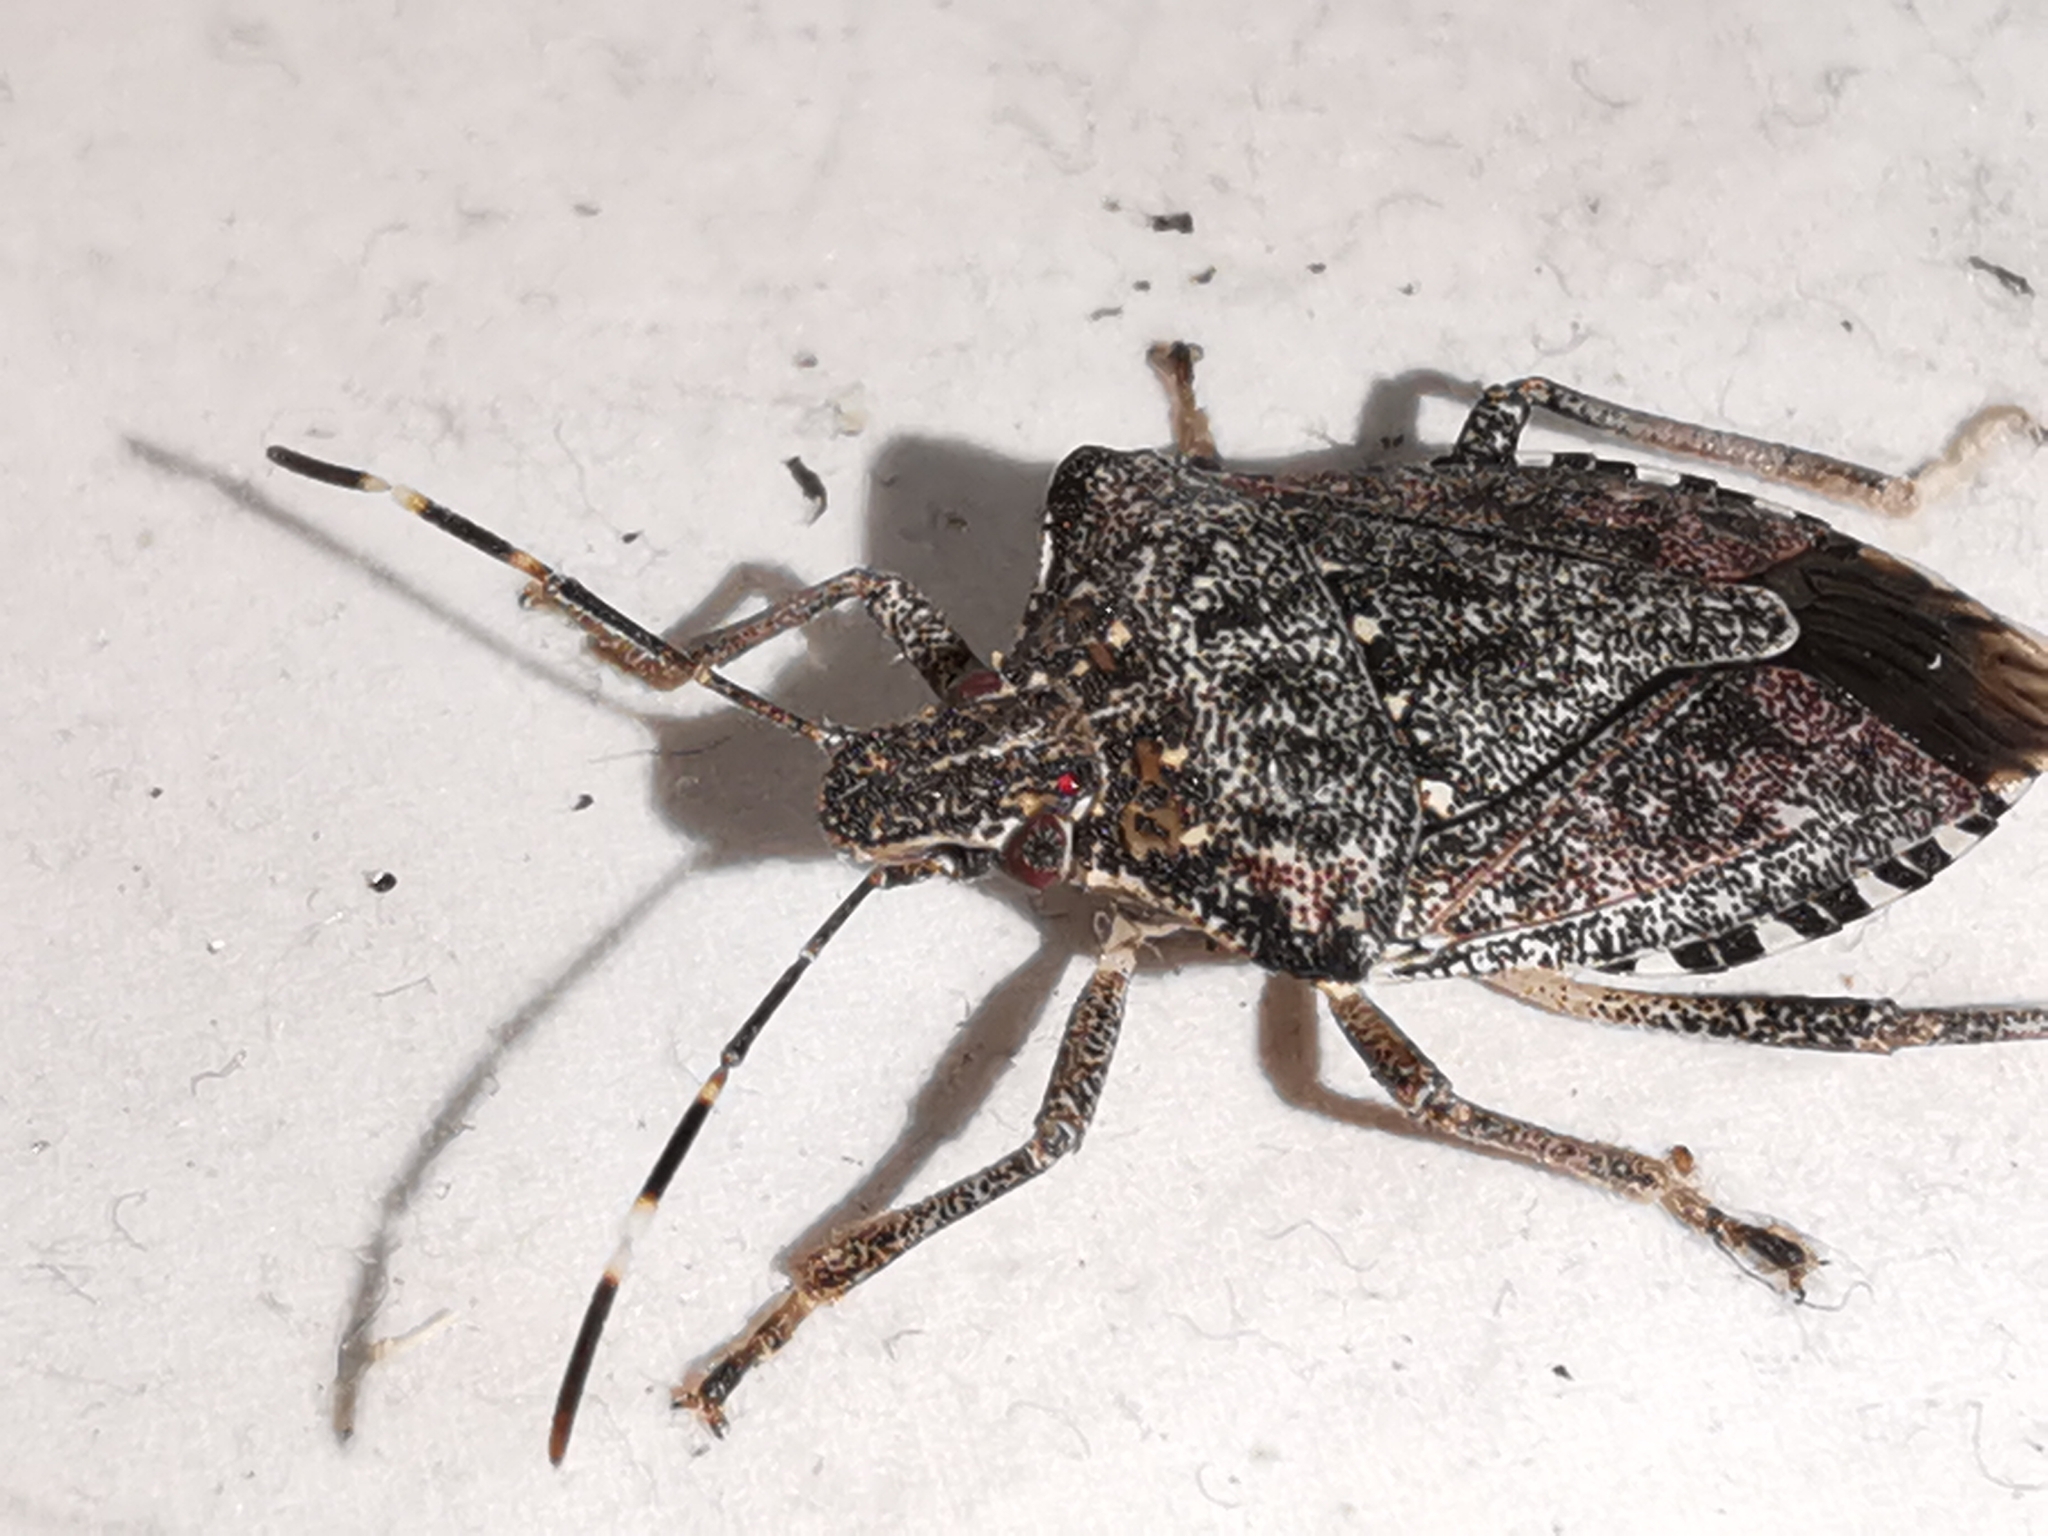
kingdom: Animalia
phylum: Arthropoda
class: Insecta
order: Hemiptera
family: Pentatomidae
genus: Halyomorpha
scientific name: Halyomorpha halys
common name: Brown marmorated stink bug
